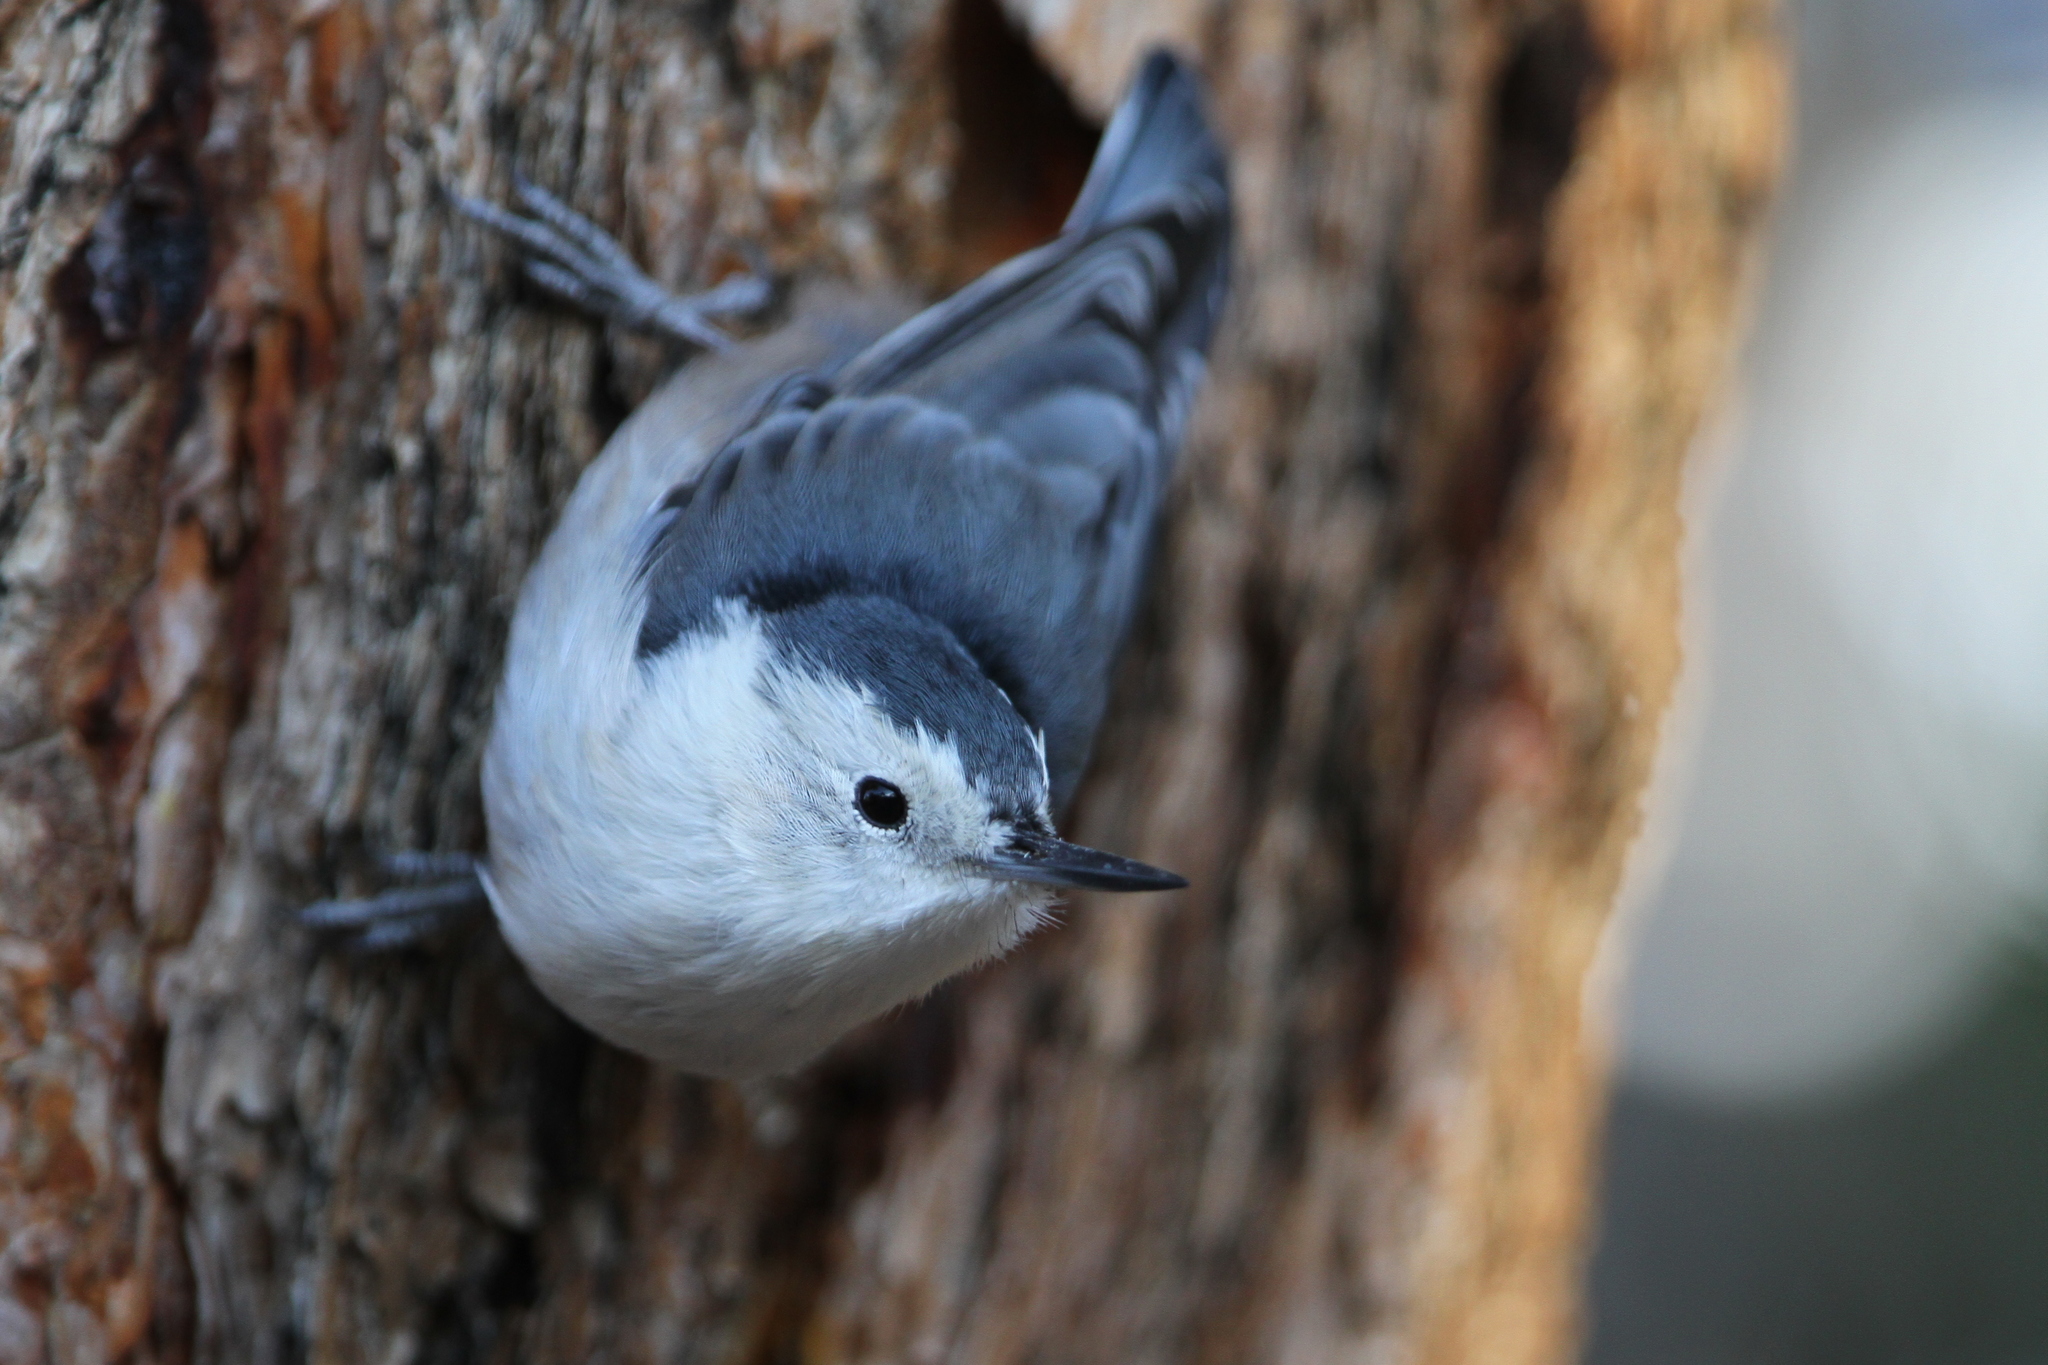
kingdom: Animalia
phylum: Chordata
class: Aves
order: Passeriformes
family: Sittidae
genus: Sitta
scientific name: Sitta carolinensis
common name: White-breasted nuthatch
